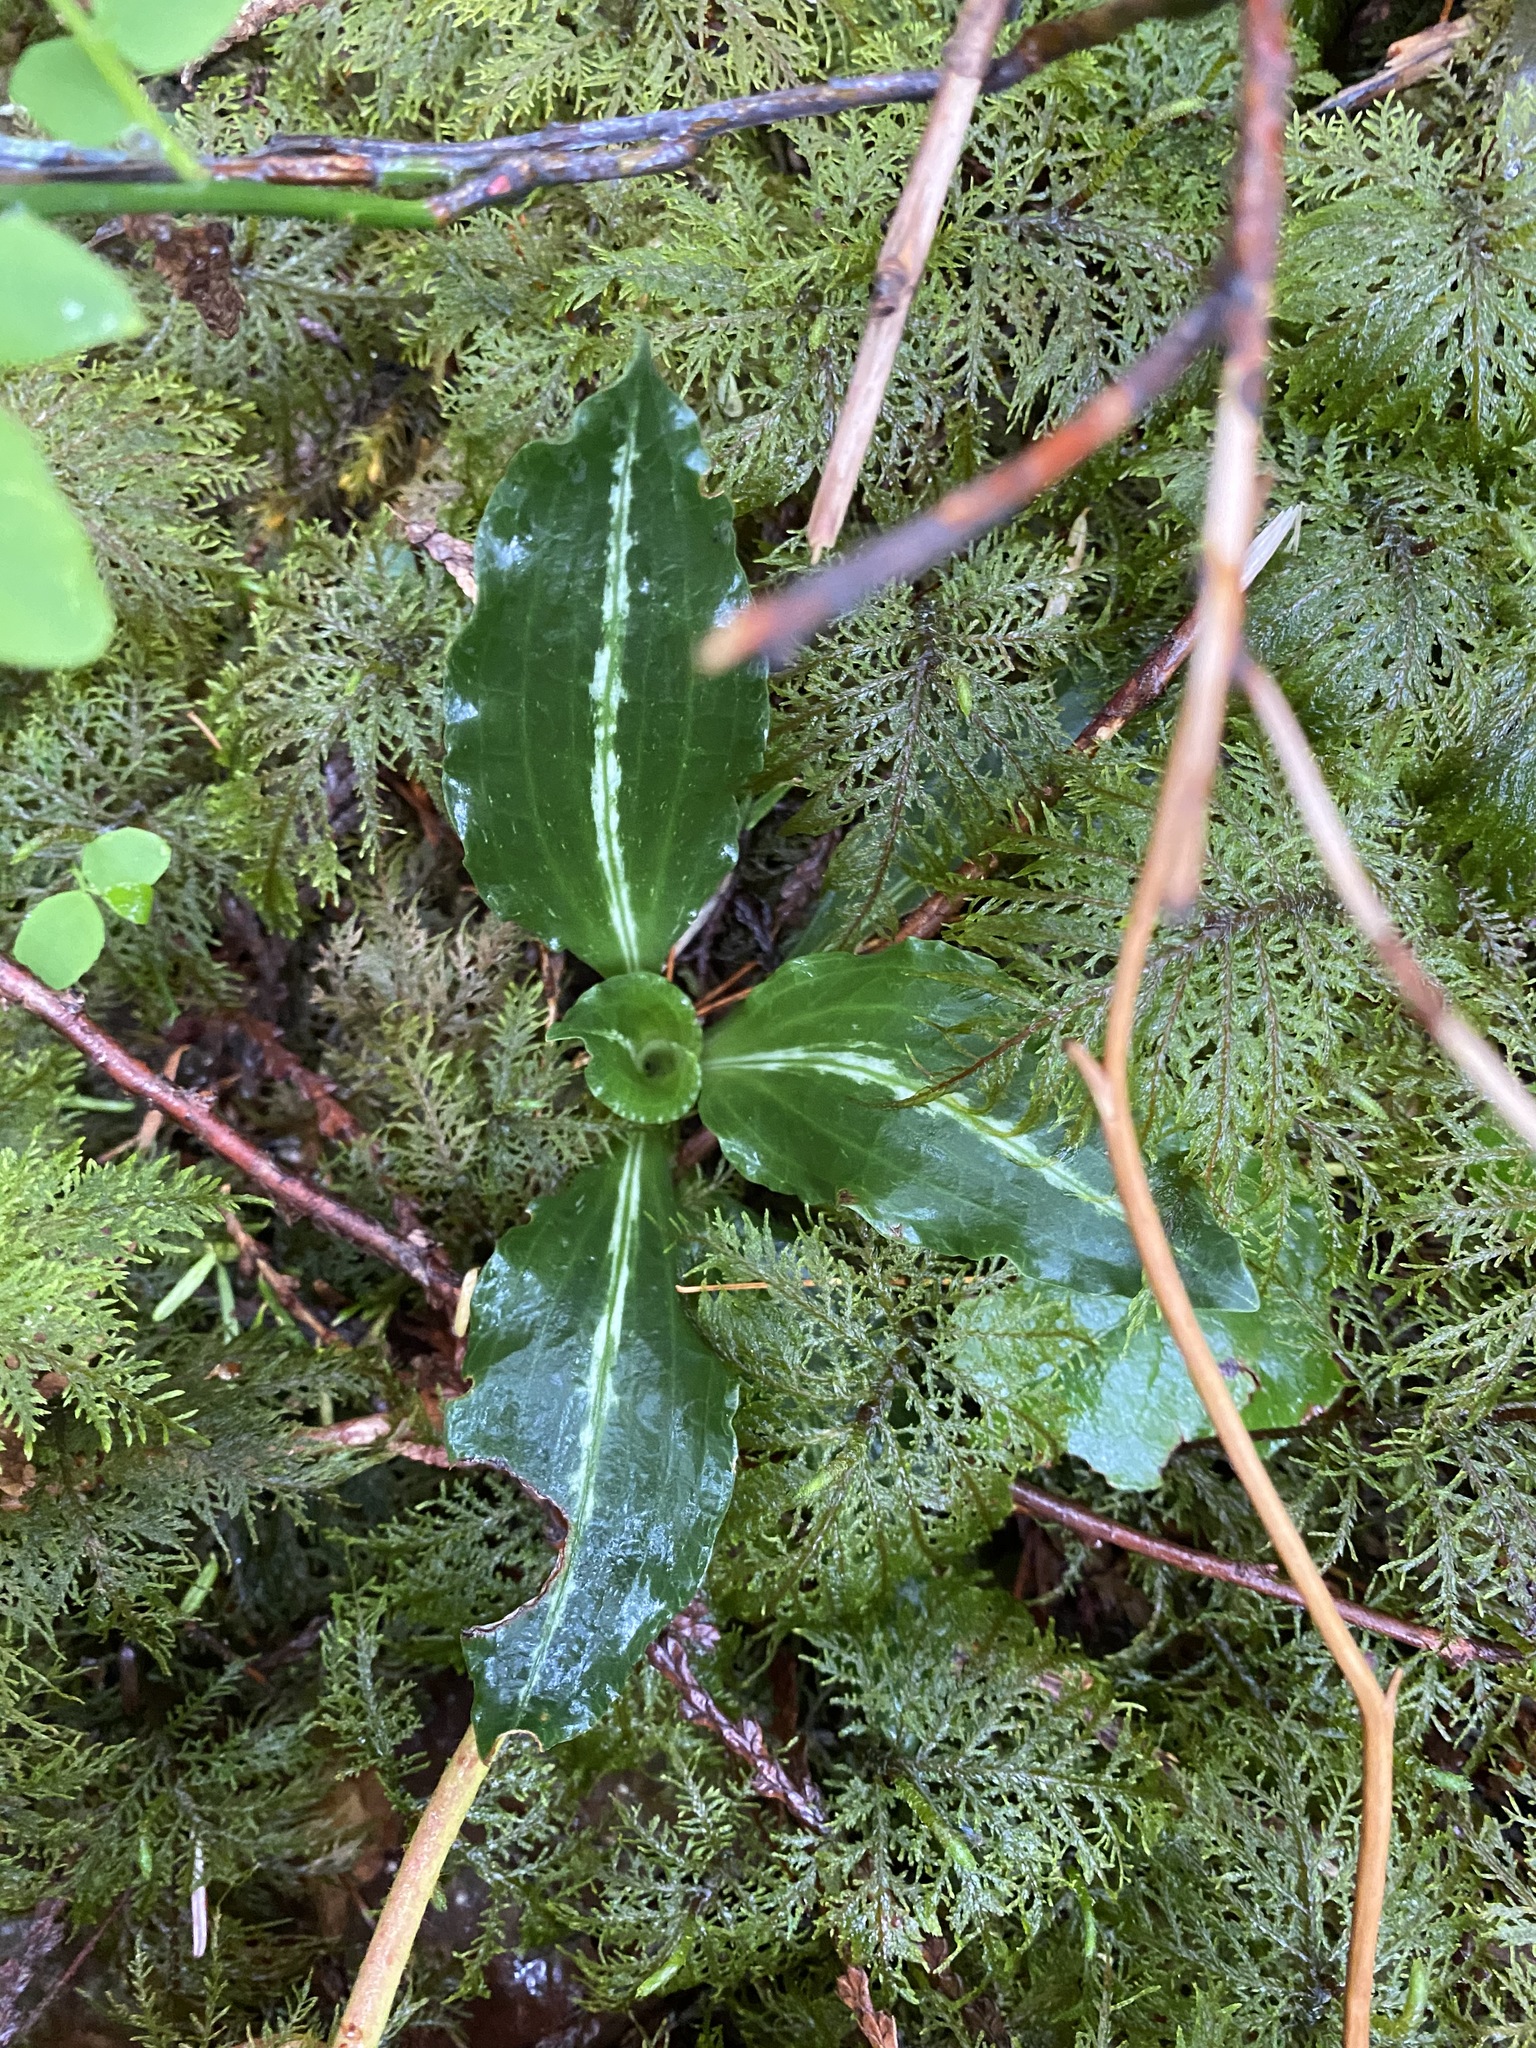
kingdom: Plantae
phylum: Tracheophyta
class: Liliopsida
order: Asparagales
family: Orchidaceae
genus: Goodyera
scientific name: Goodyera oblongifolia
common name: Giant rattlesnake-plantain
